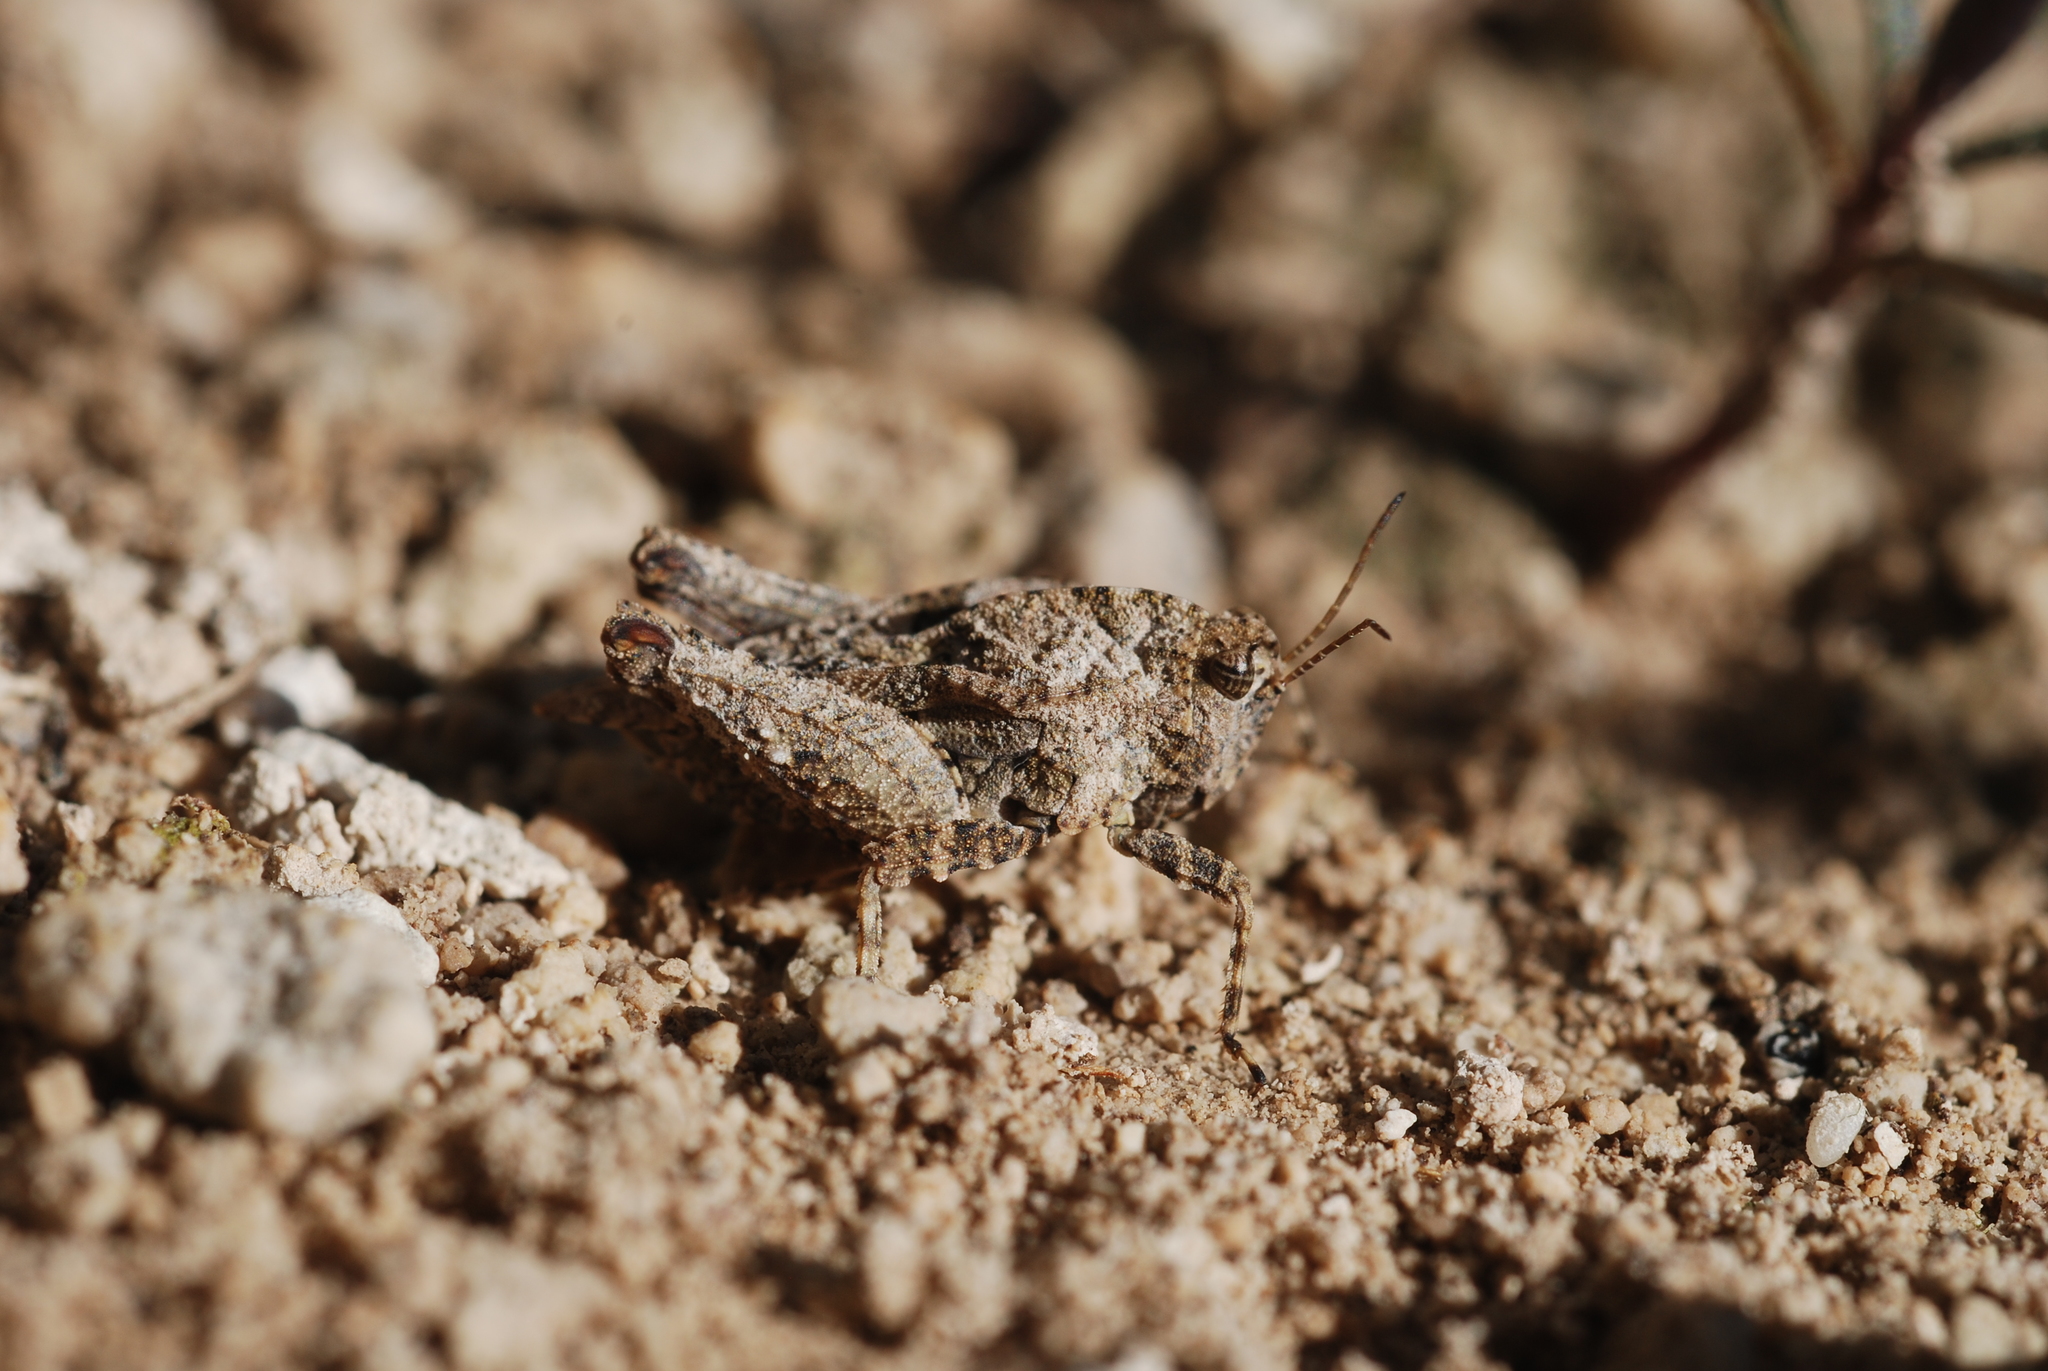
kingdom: Animalia
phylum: Arthropoda
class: Insecta
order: Orthoptera
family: Tetrigidae
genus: Tetrix
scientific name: Tetrix depressa
